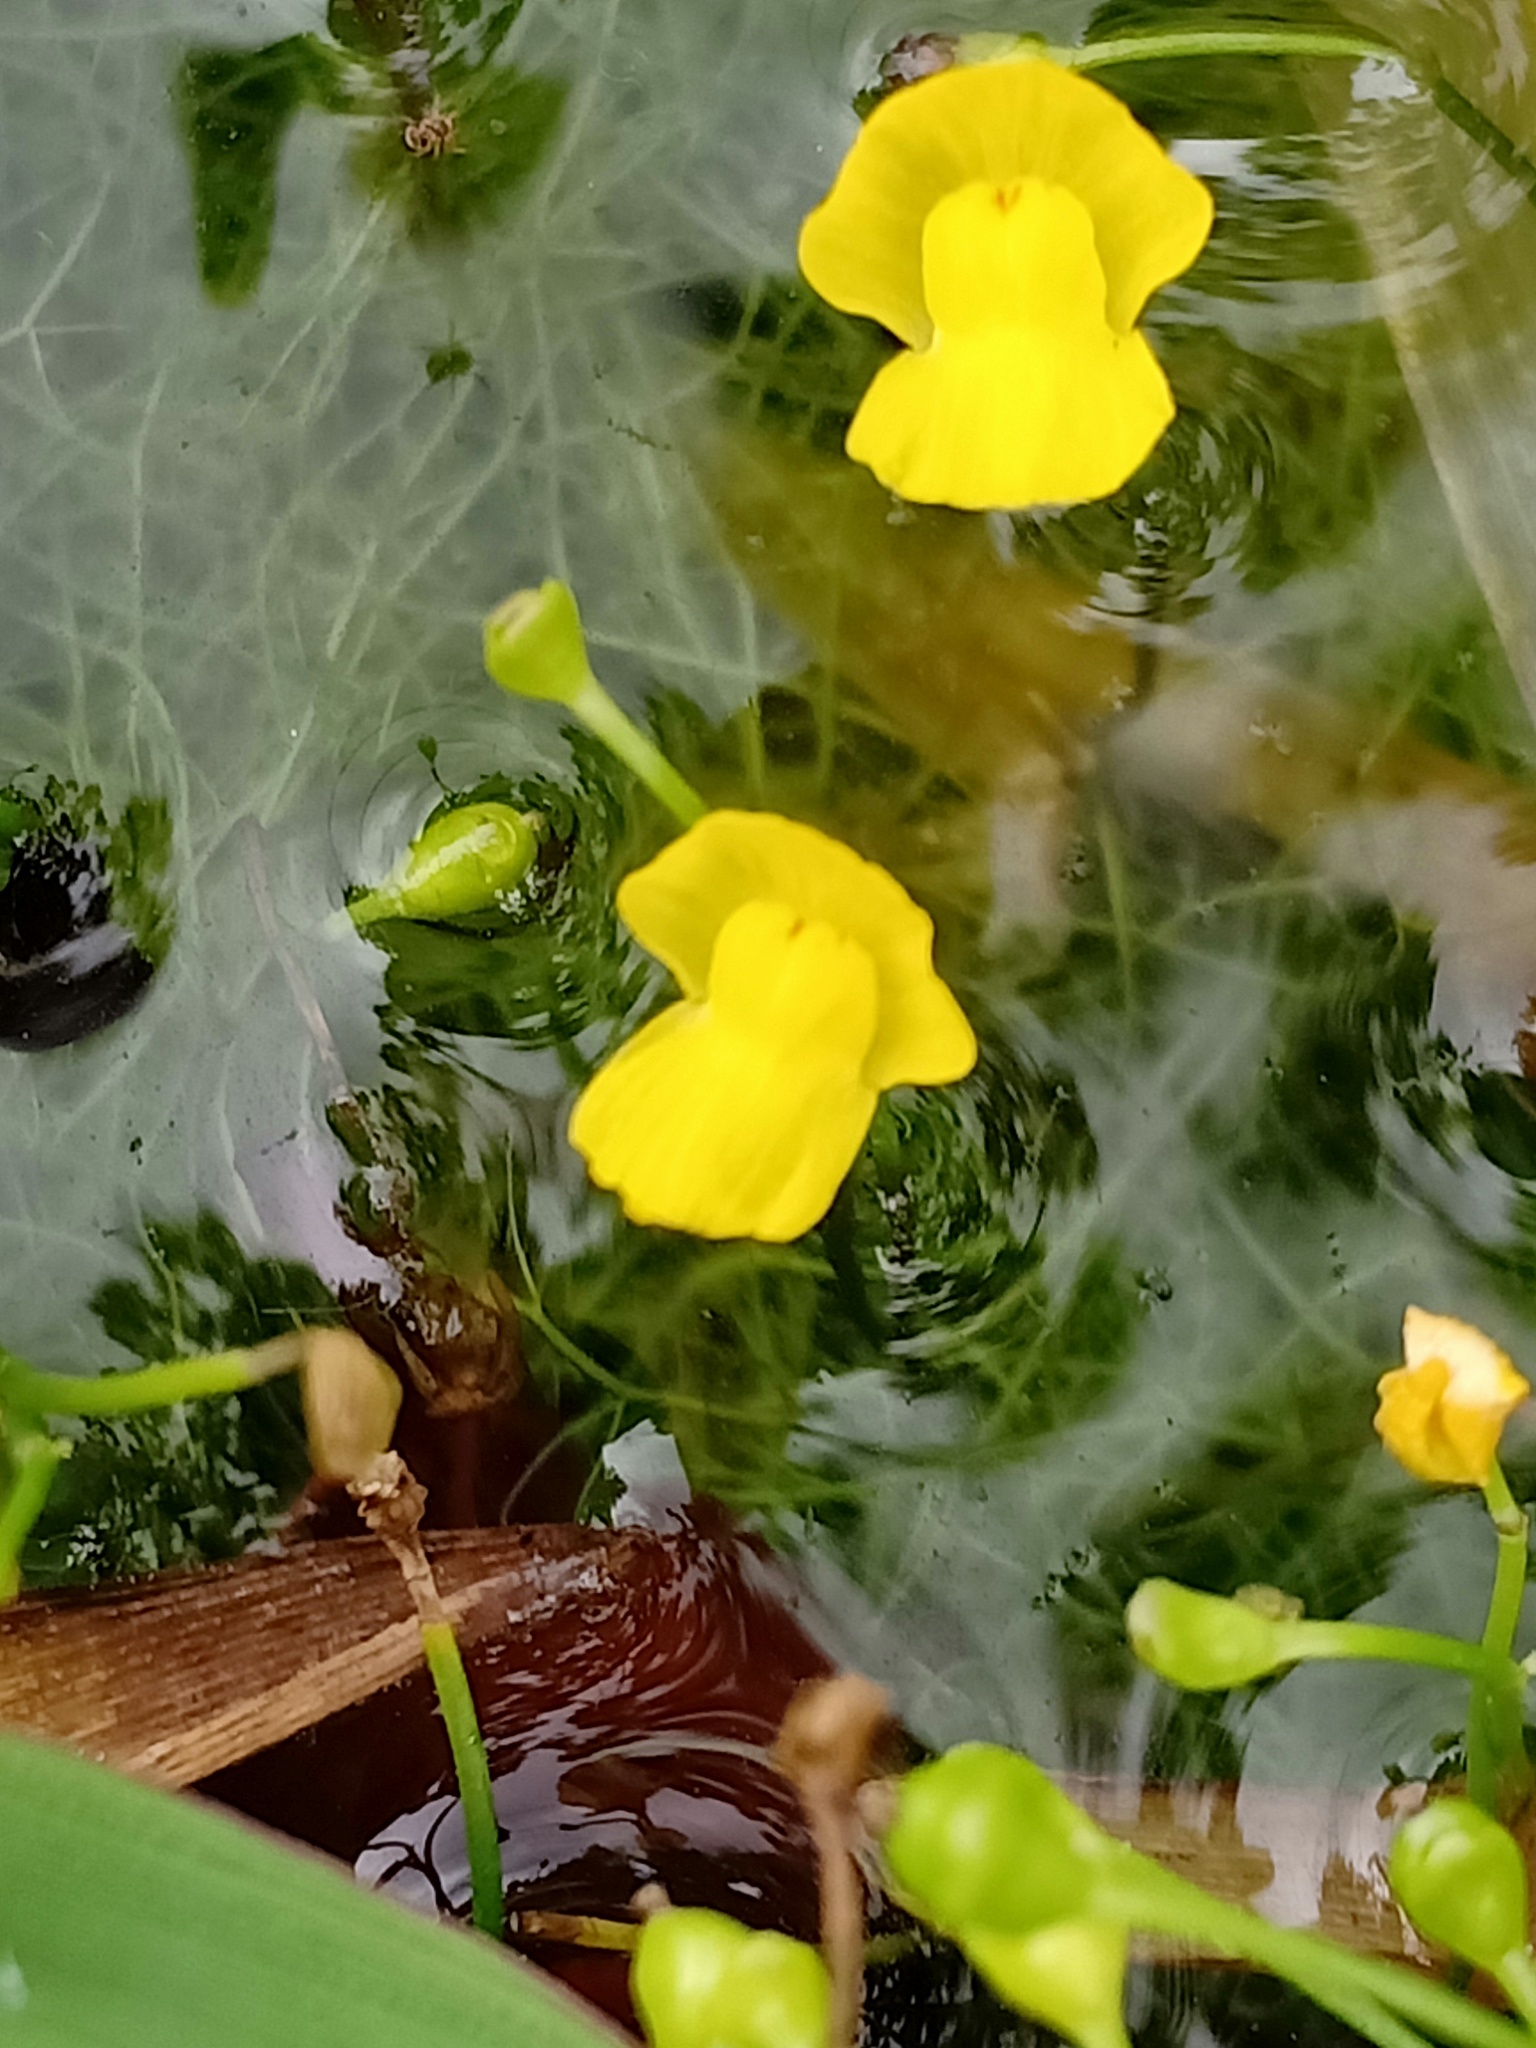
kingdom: Plantae
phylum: Tracheophyta
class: Magnoliopsida
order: Lamiales
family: Lentibulariaceae
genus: Utricularia
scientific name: Utricularia gibba
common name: Humped bladderwort
